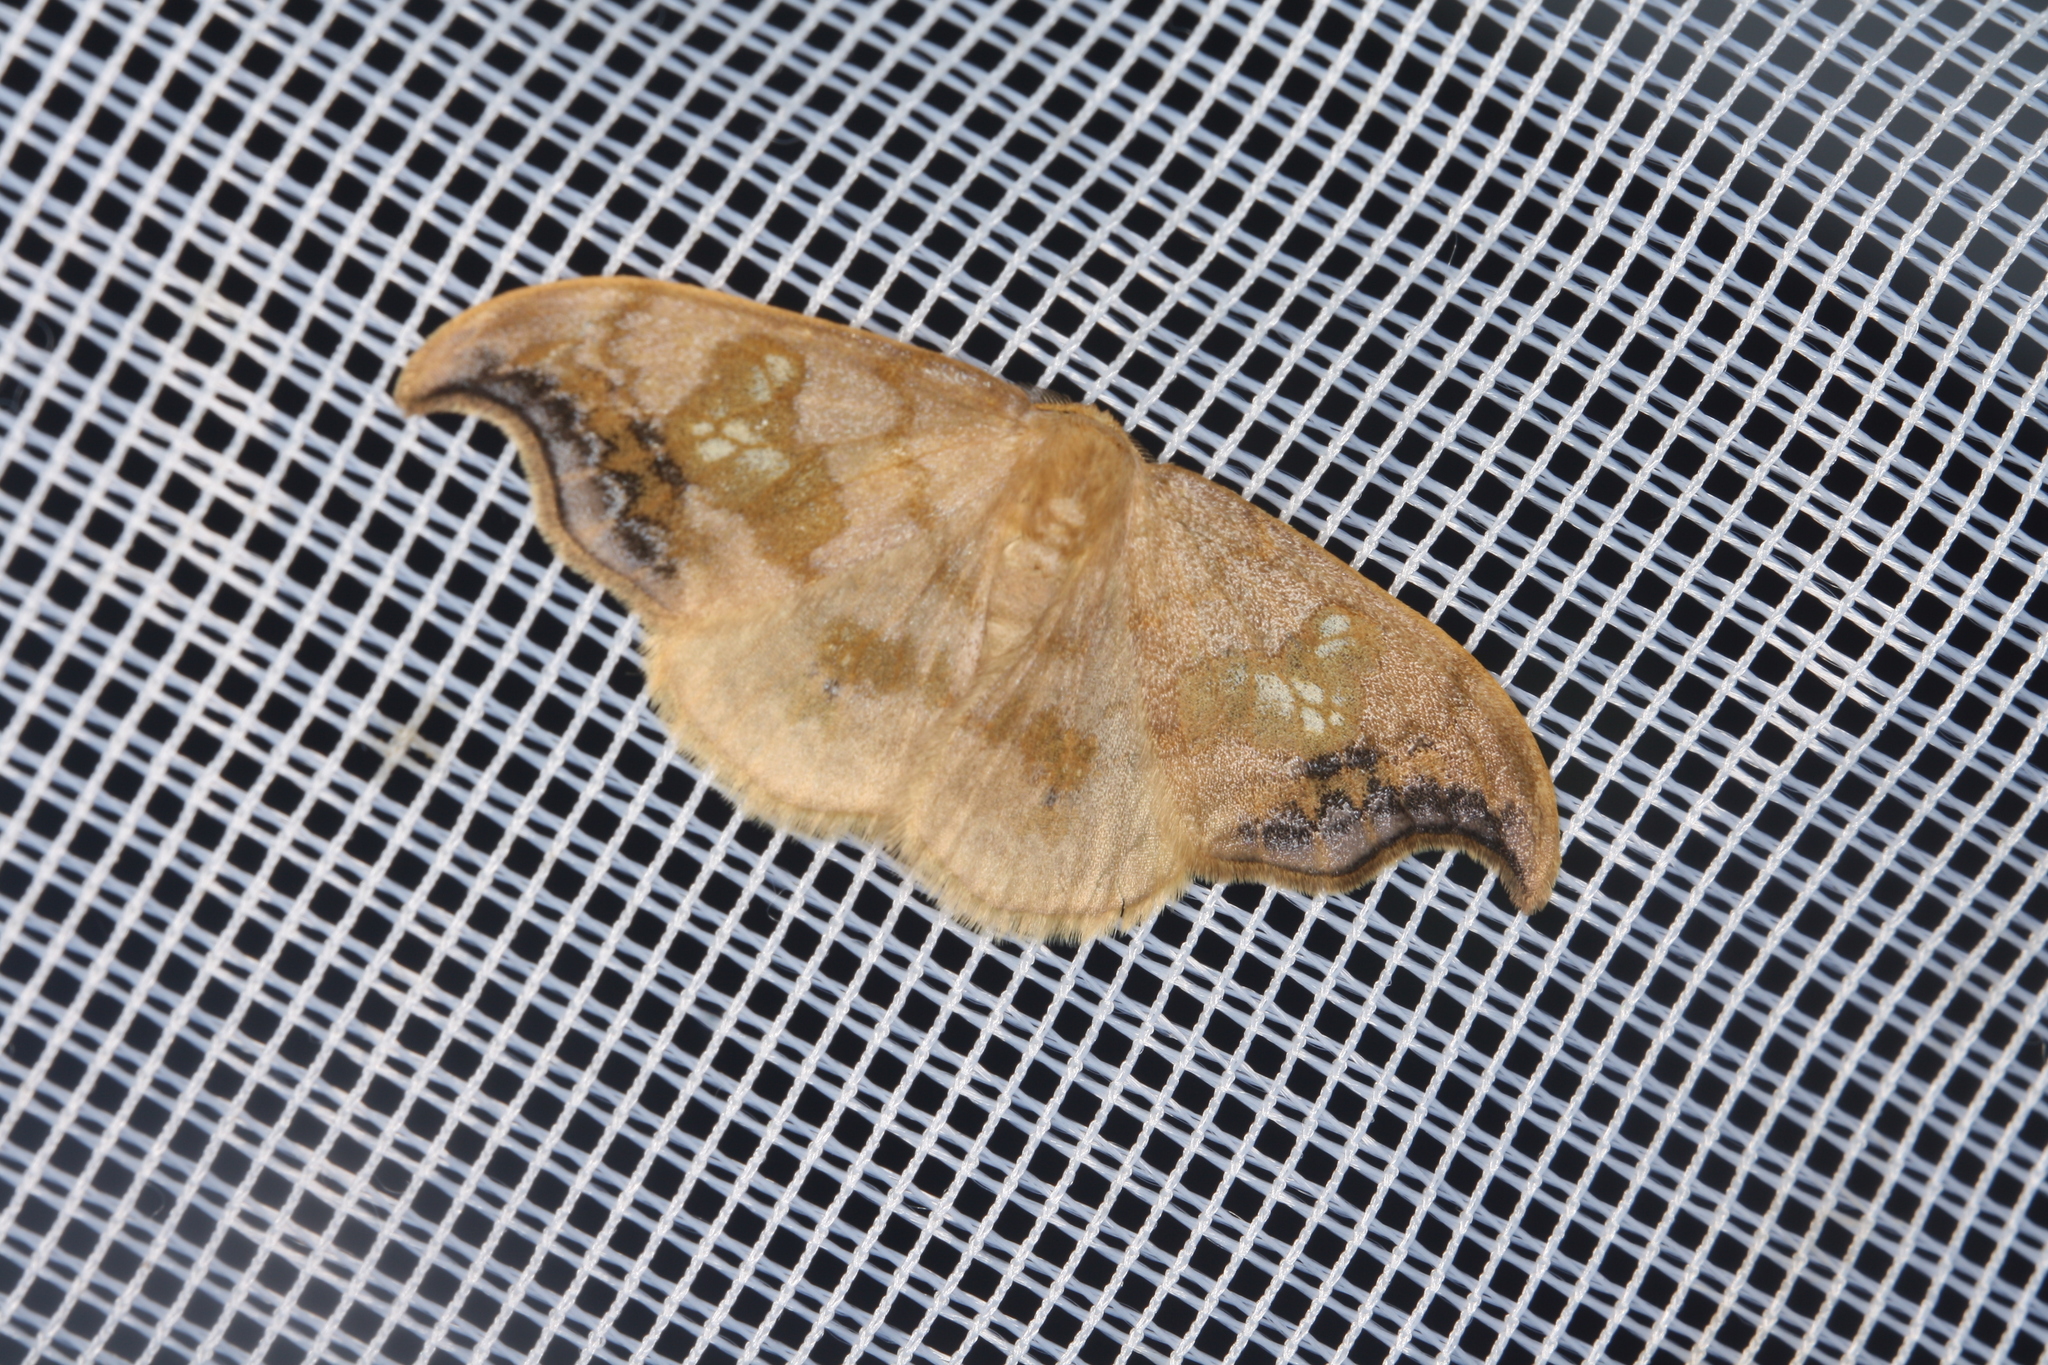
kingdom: Animalia
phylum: Arthropoda
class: Insecta
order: Lepidoptera
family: Drepanidae
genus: Sabra
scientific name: Sabra harpagula
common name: Scarce hook-tip
